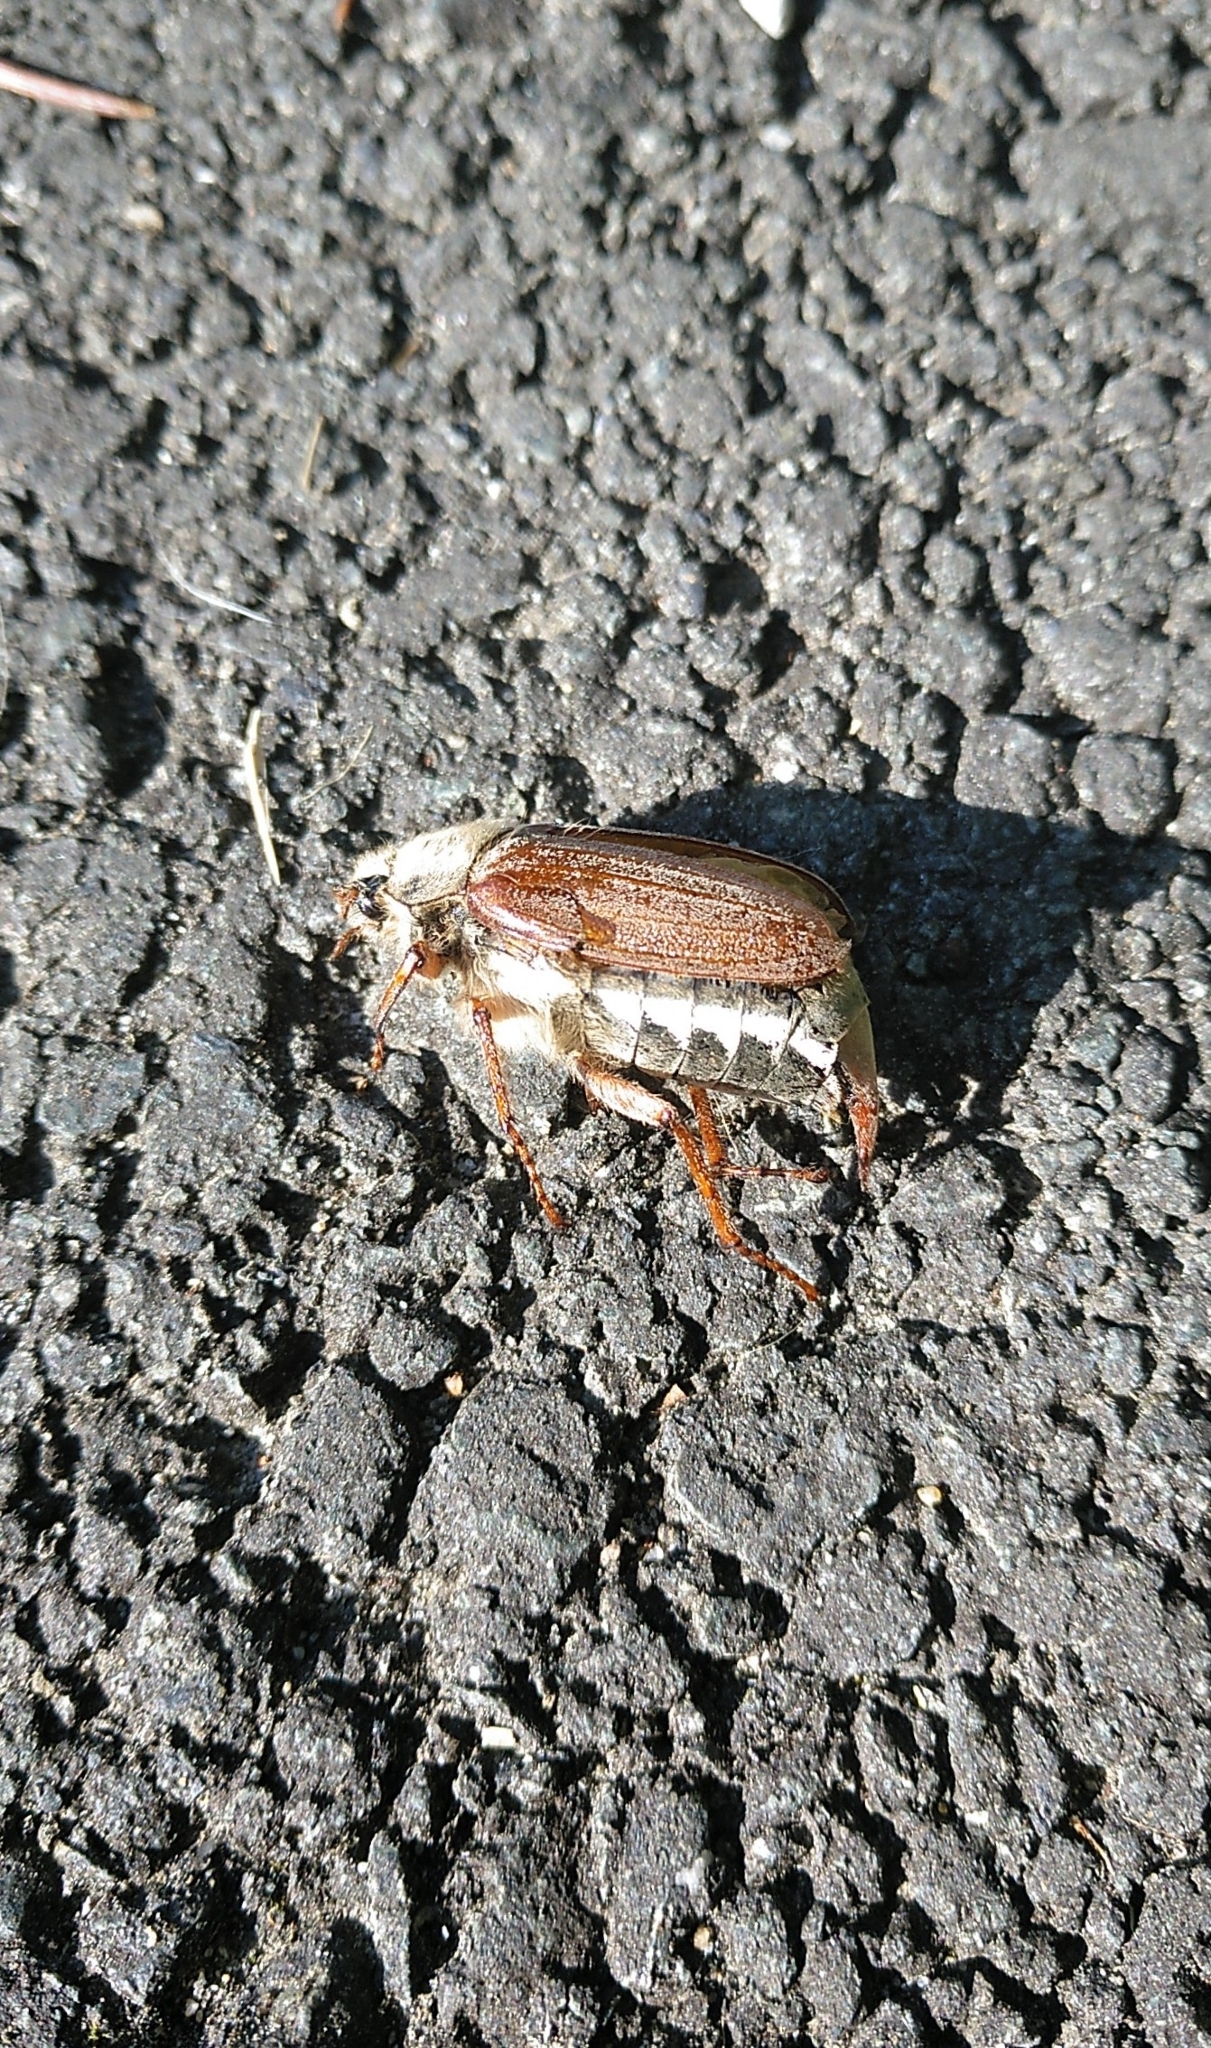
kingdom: Animalia
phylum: Arthropoda
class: Insecta
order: Coleoptera
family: Scarabaeidae
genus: Melolontha
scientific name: Melolontha melolontha
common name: Cockchafer maybeetle
